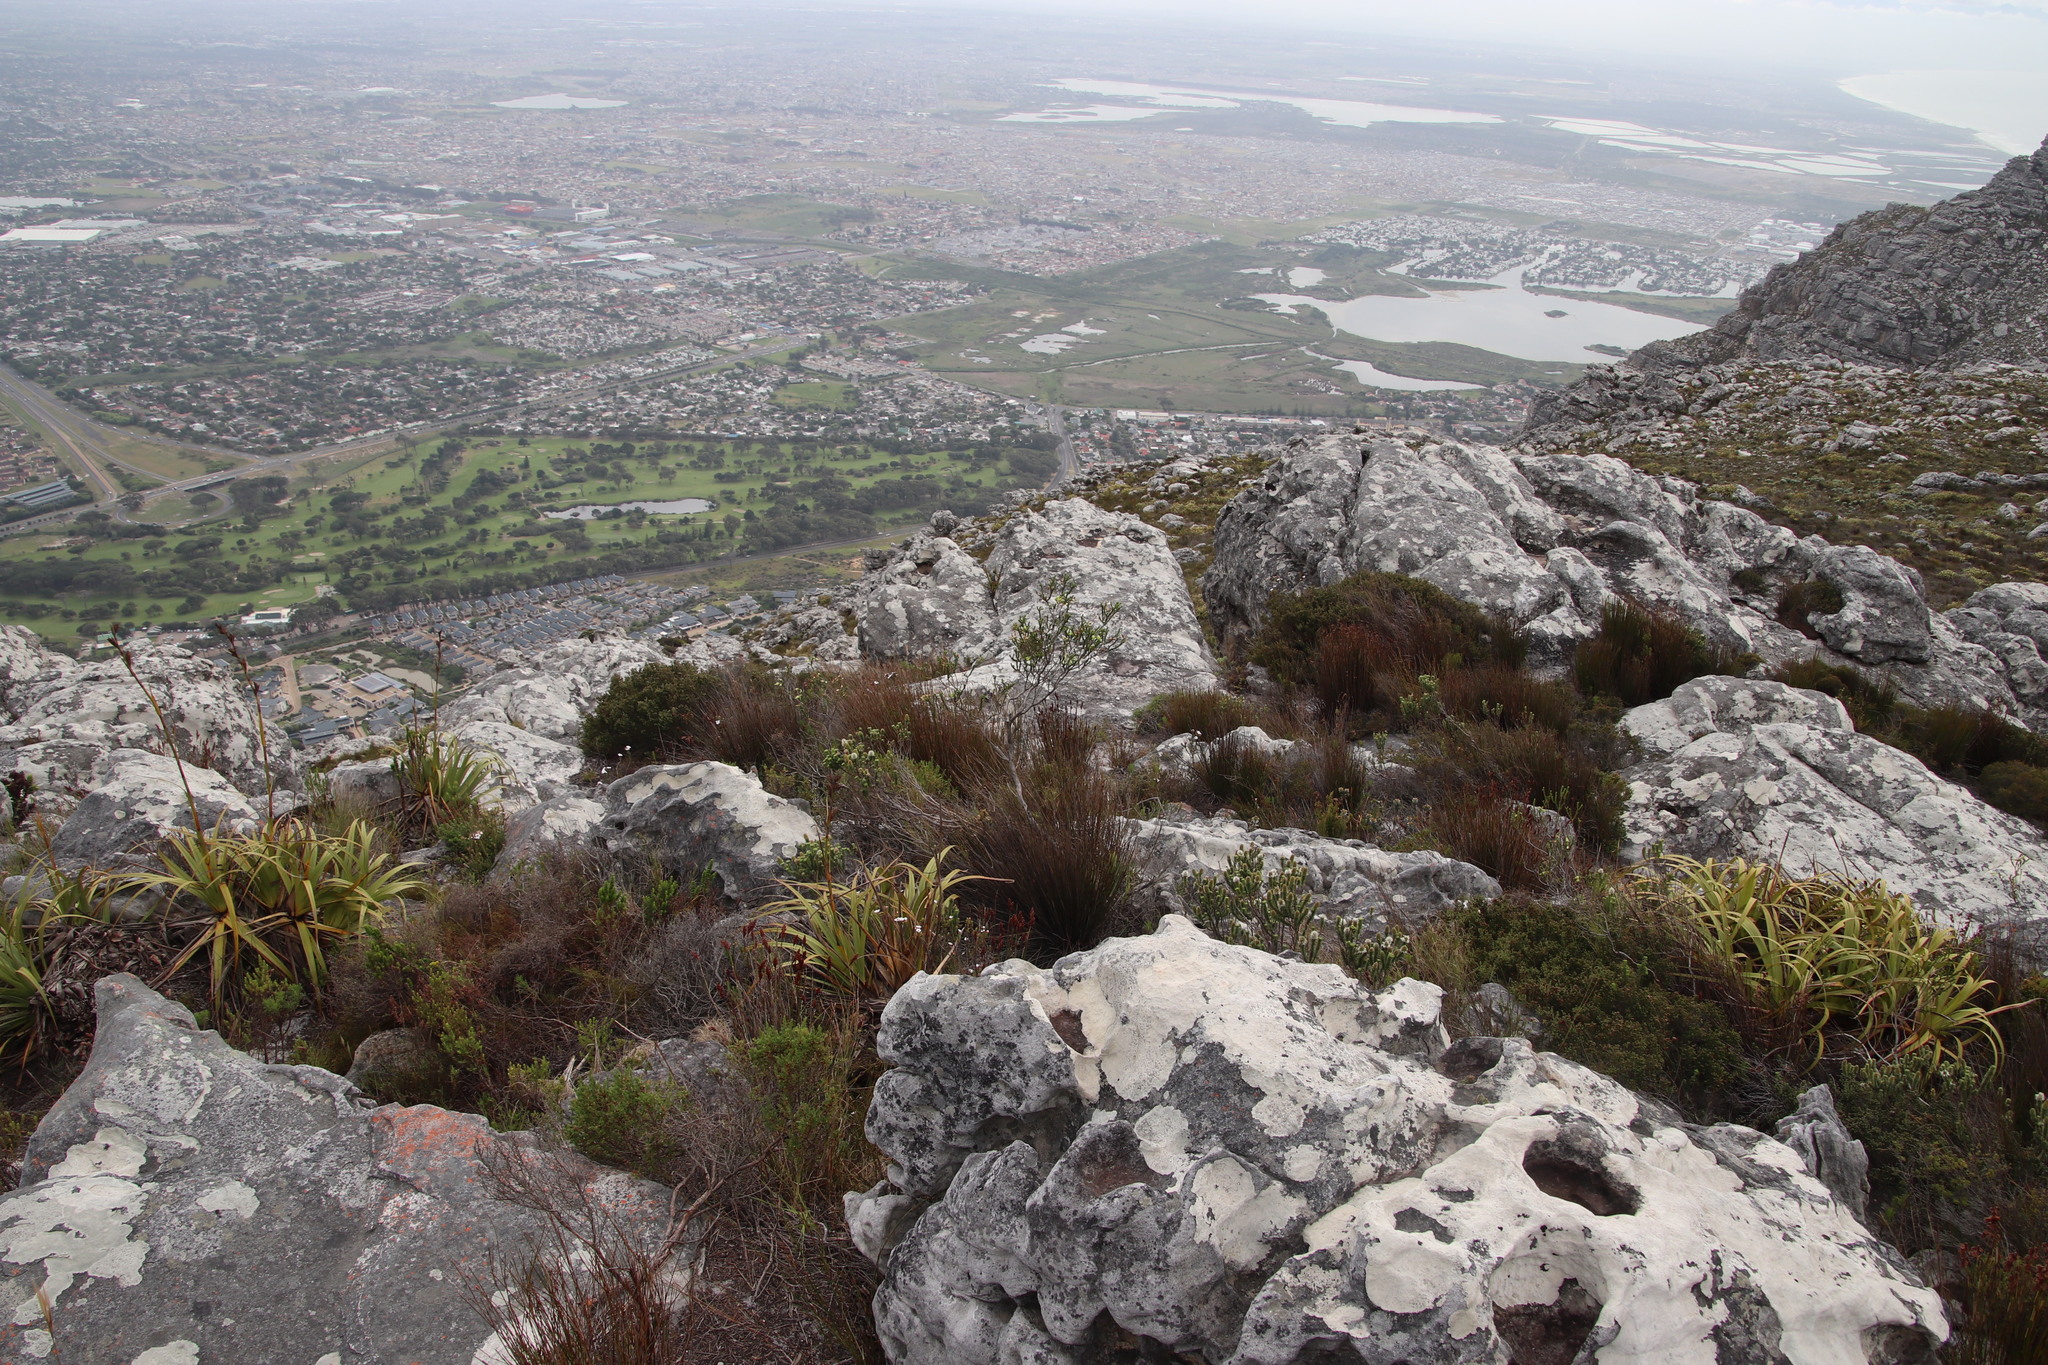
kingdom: Plantae
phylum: Tracheophyta
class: Magnoliopsida
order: Ericales
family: Ericaceae
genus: Erica
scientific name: Erica urna-viridis
